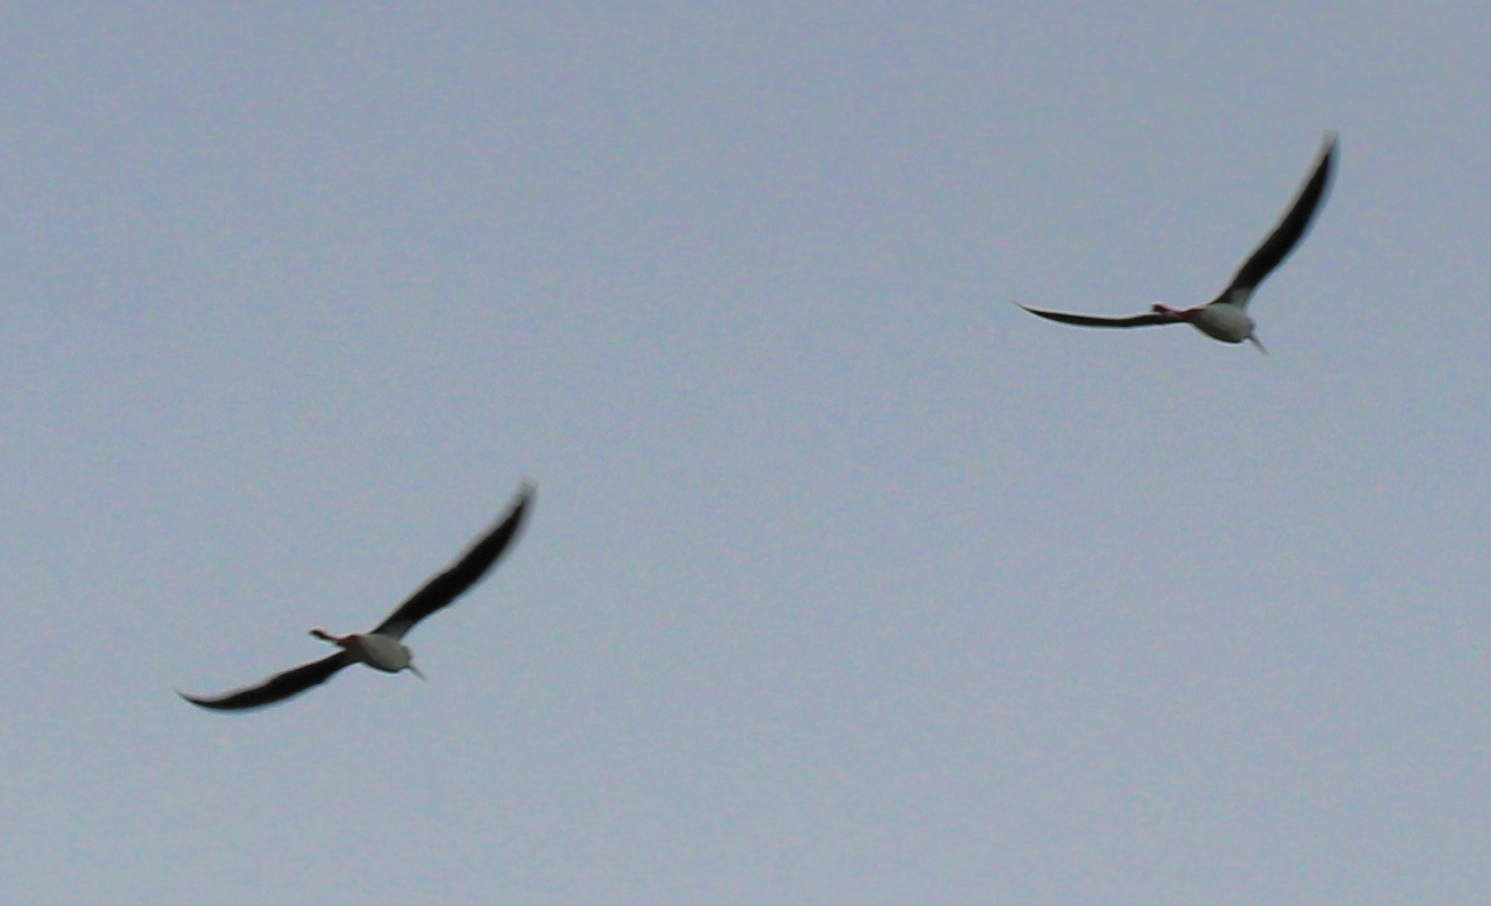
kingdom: Animalia
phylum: Chordata
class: Aves
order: Charadriiformes
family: Recurvirostridae
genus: Himantopus
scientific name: Himantopus leucocephalus
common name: White-headed stilt
